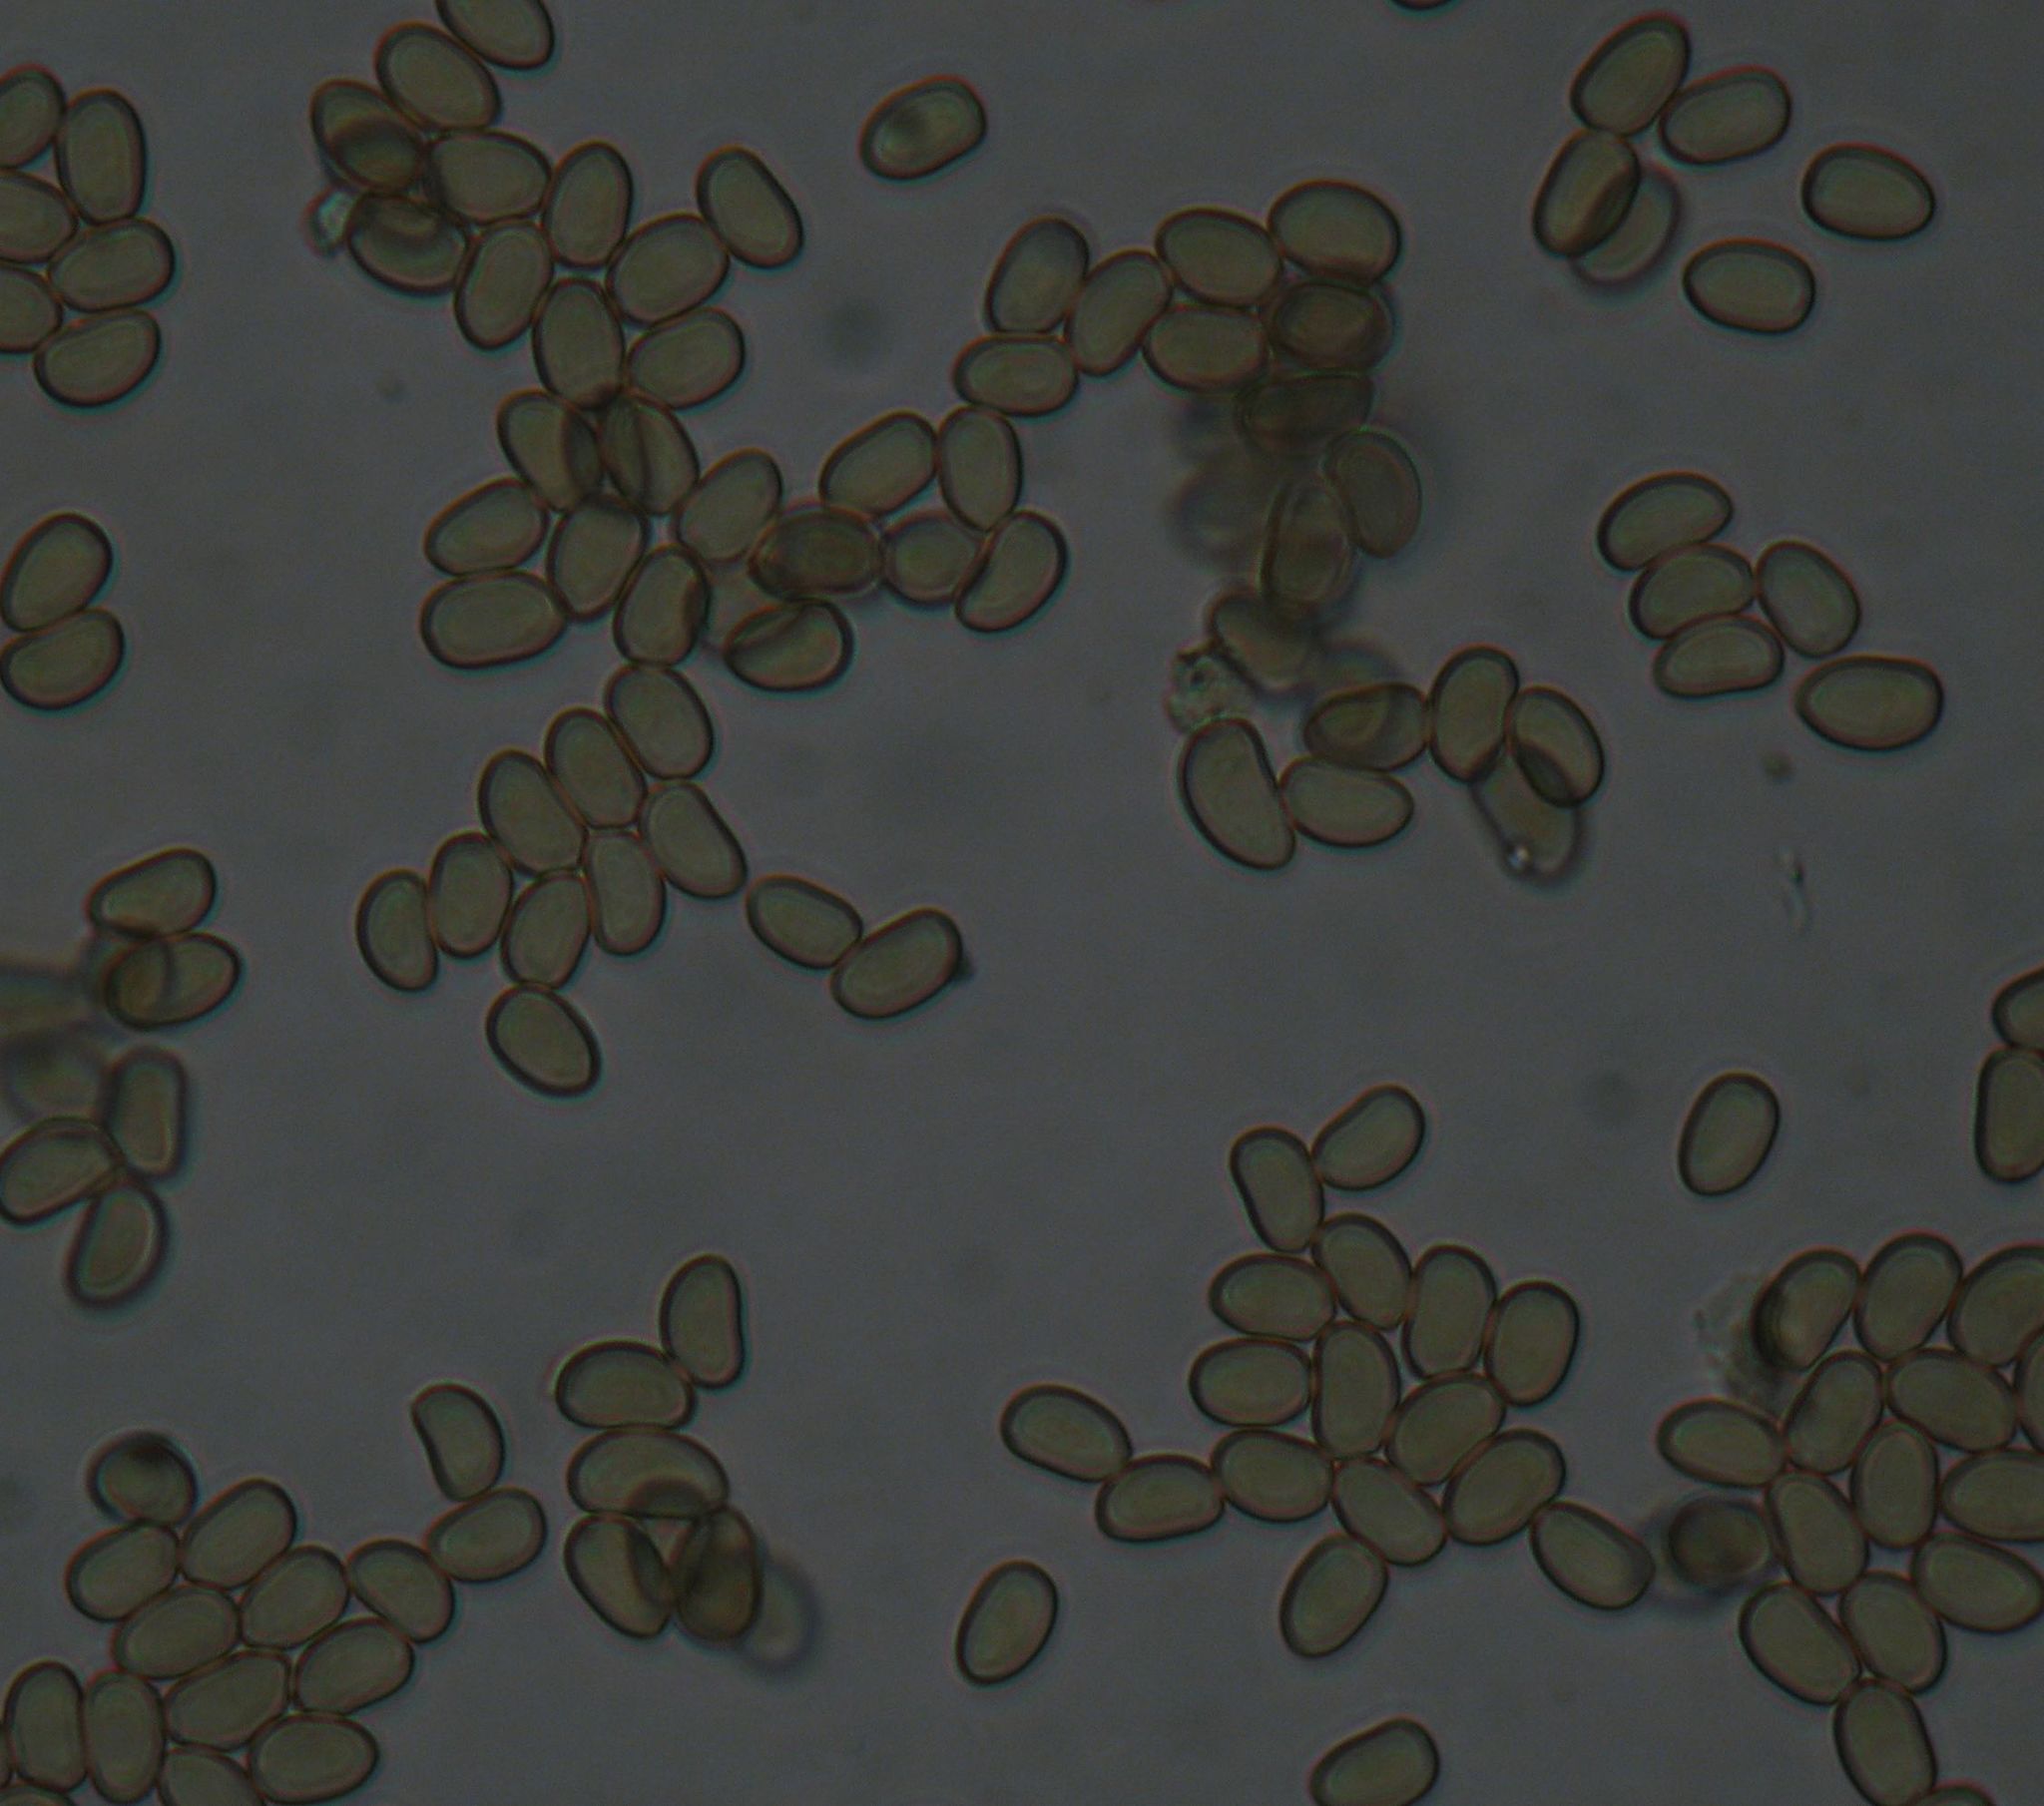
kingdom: Fungi
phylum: Basidiomycota
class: Agaricomycetes
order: Agaricales
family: Crepidotaceae
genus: Simocybe
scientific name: Simocybe phlebophora
